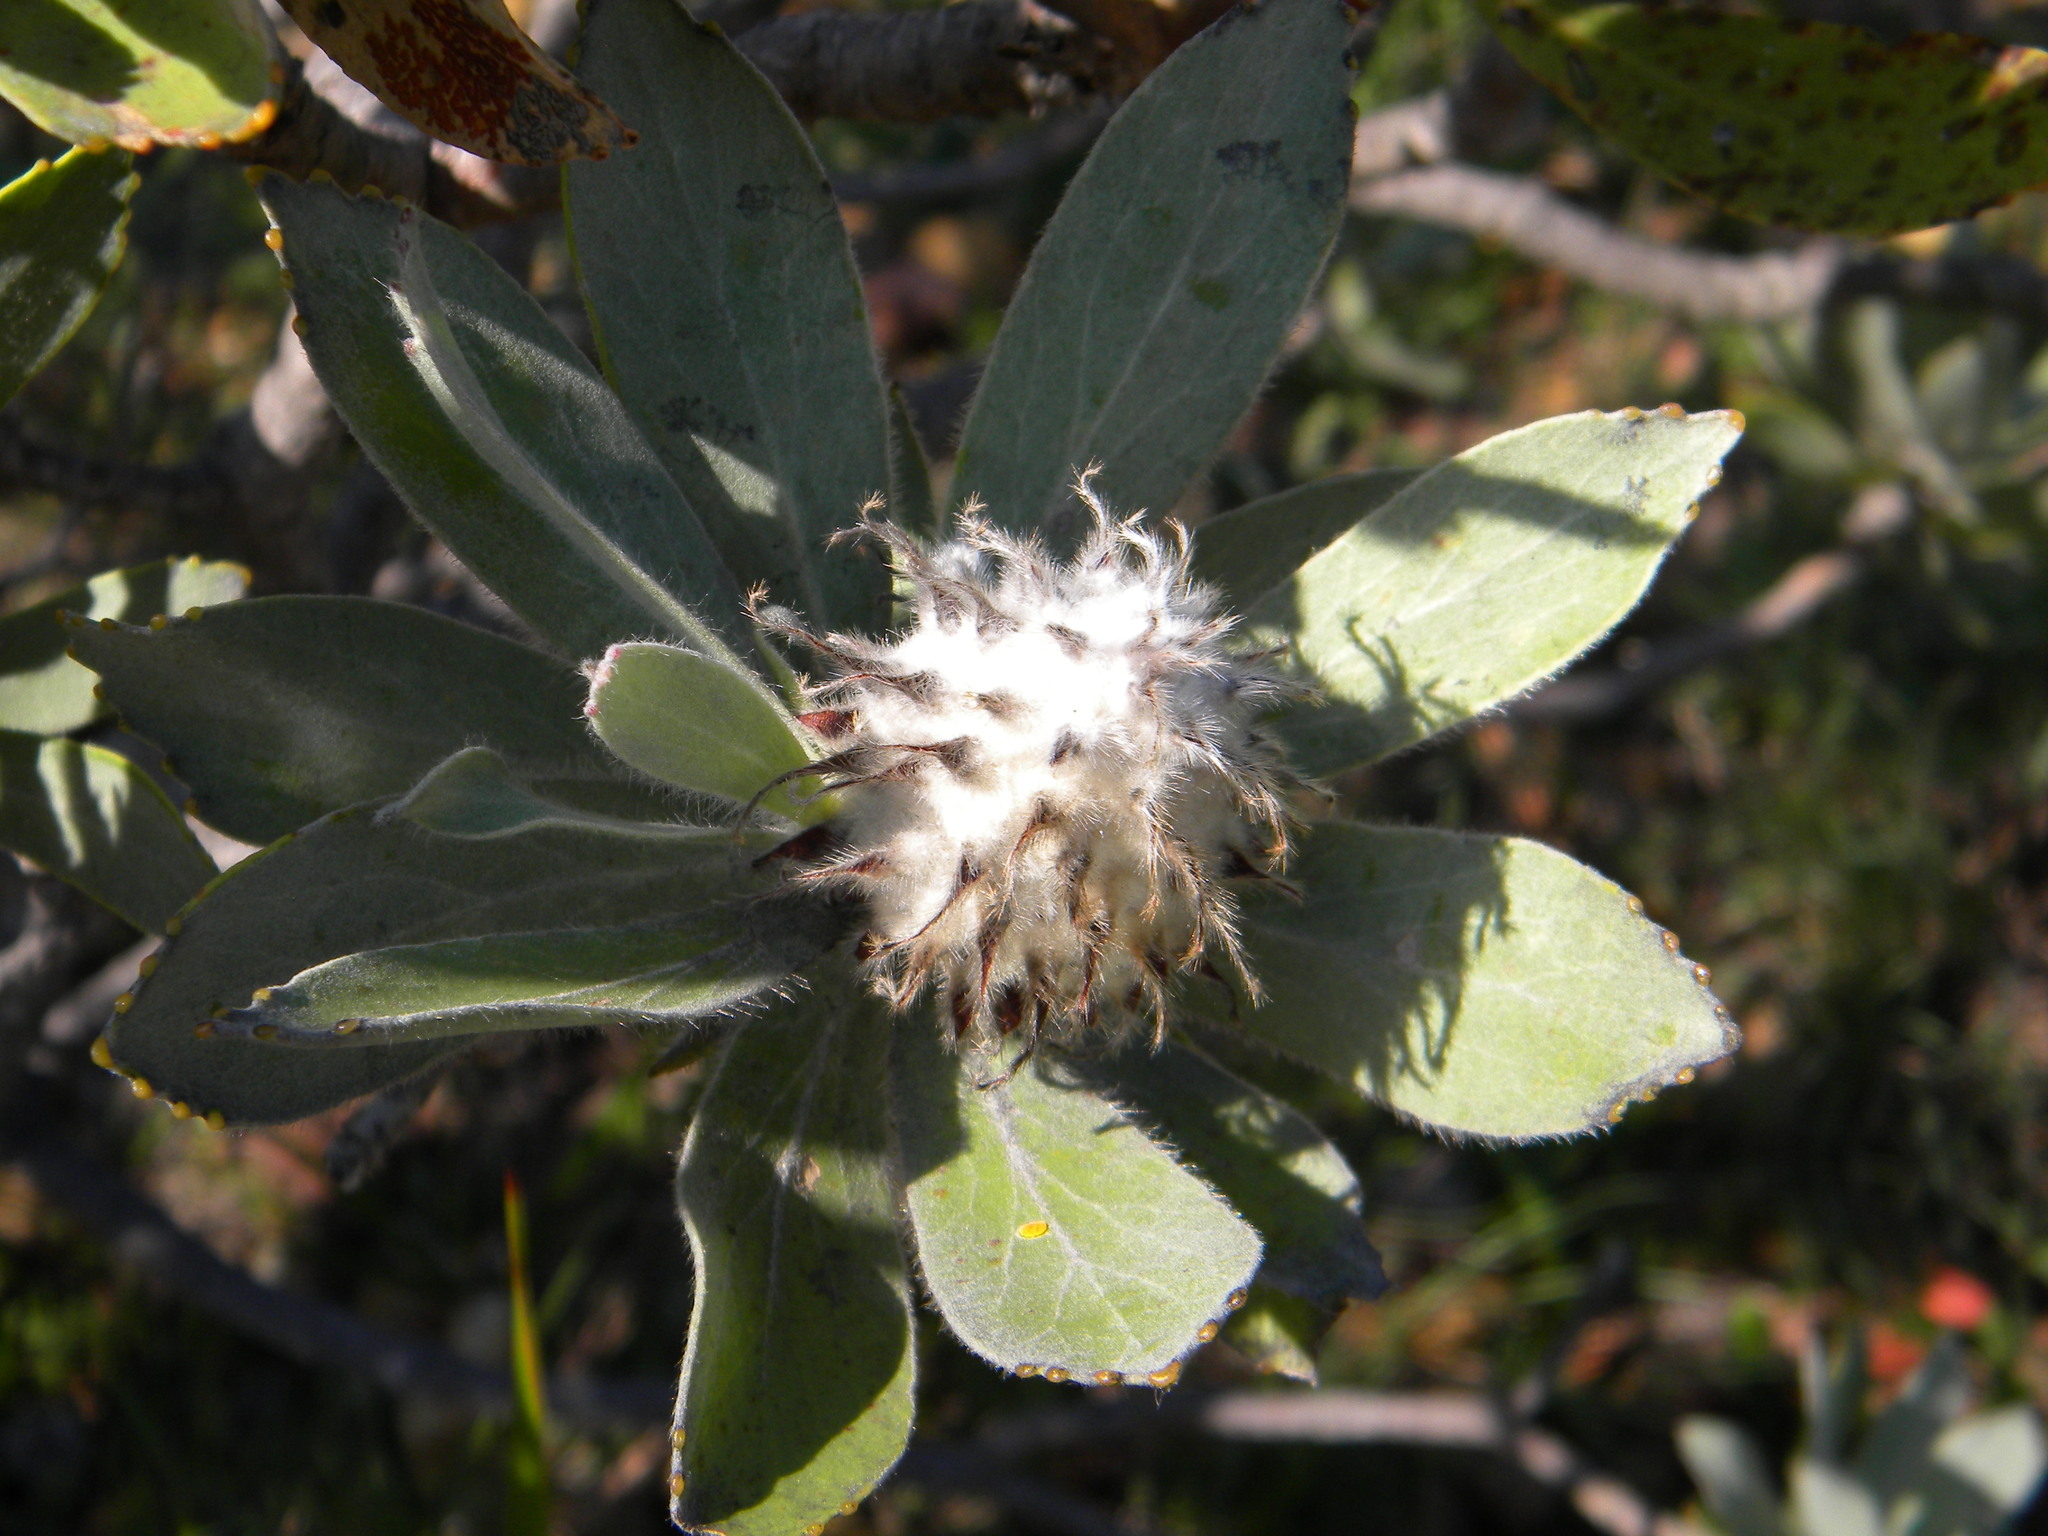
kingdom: Plantae
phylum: Tracheophyta
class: Magnoliopsida
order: Proteales
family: Proteaceae
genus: Leucospermum
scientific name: Leucospermum conocarpodendron
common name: Tree pincushion
